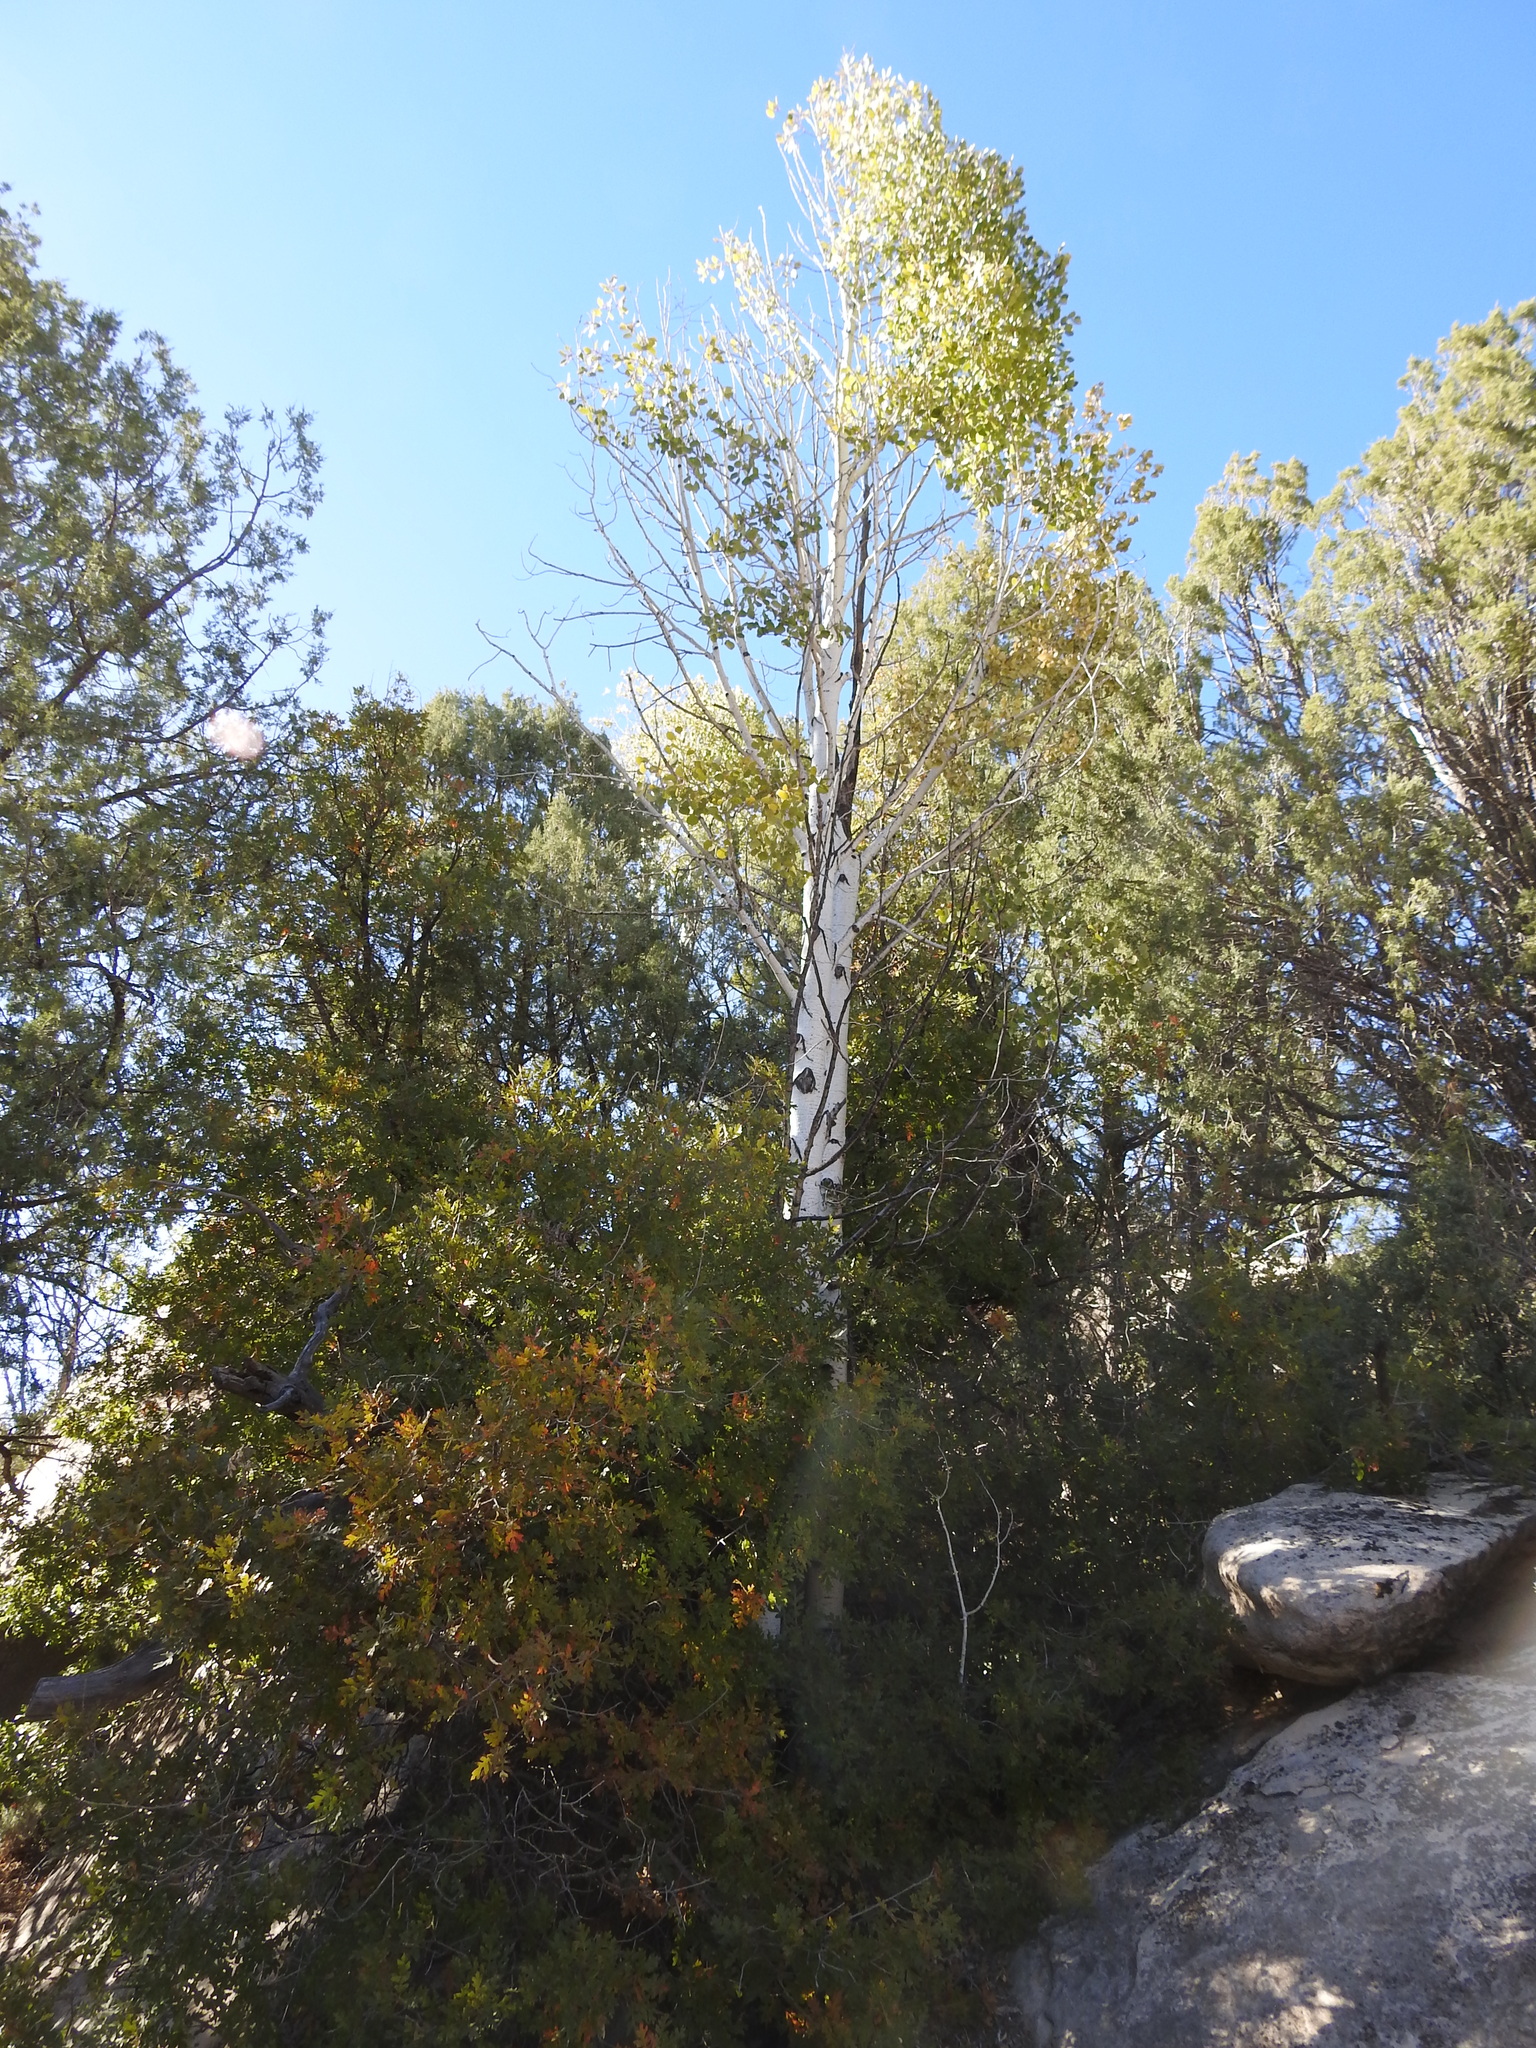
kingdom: Plantae
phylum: Tracheophyta
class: Magnoliopsida
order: Malpighiales
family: Salicaceae
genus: Populus
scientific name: Populus tremuloides
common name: Quaking aspen
